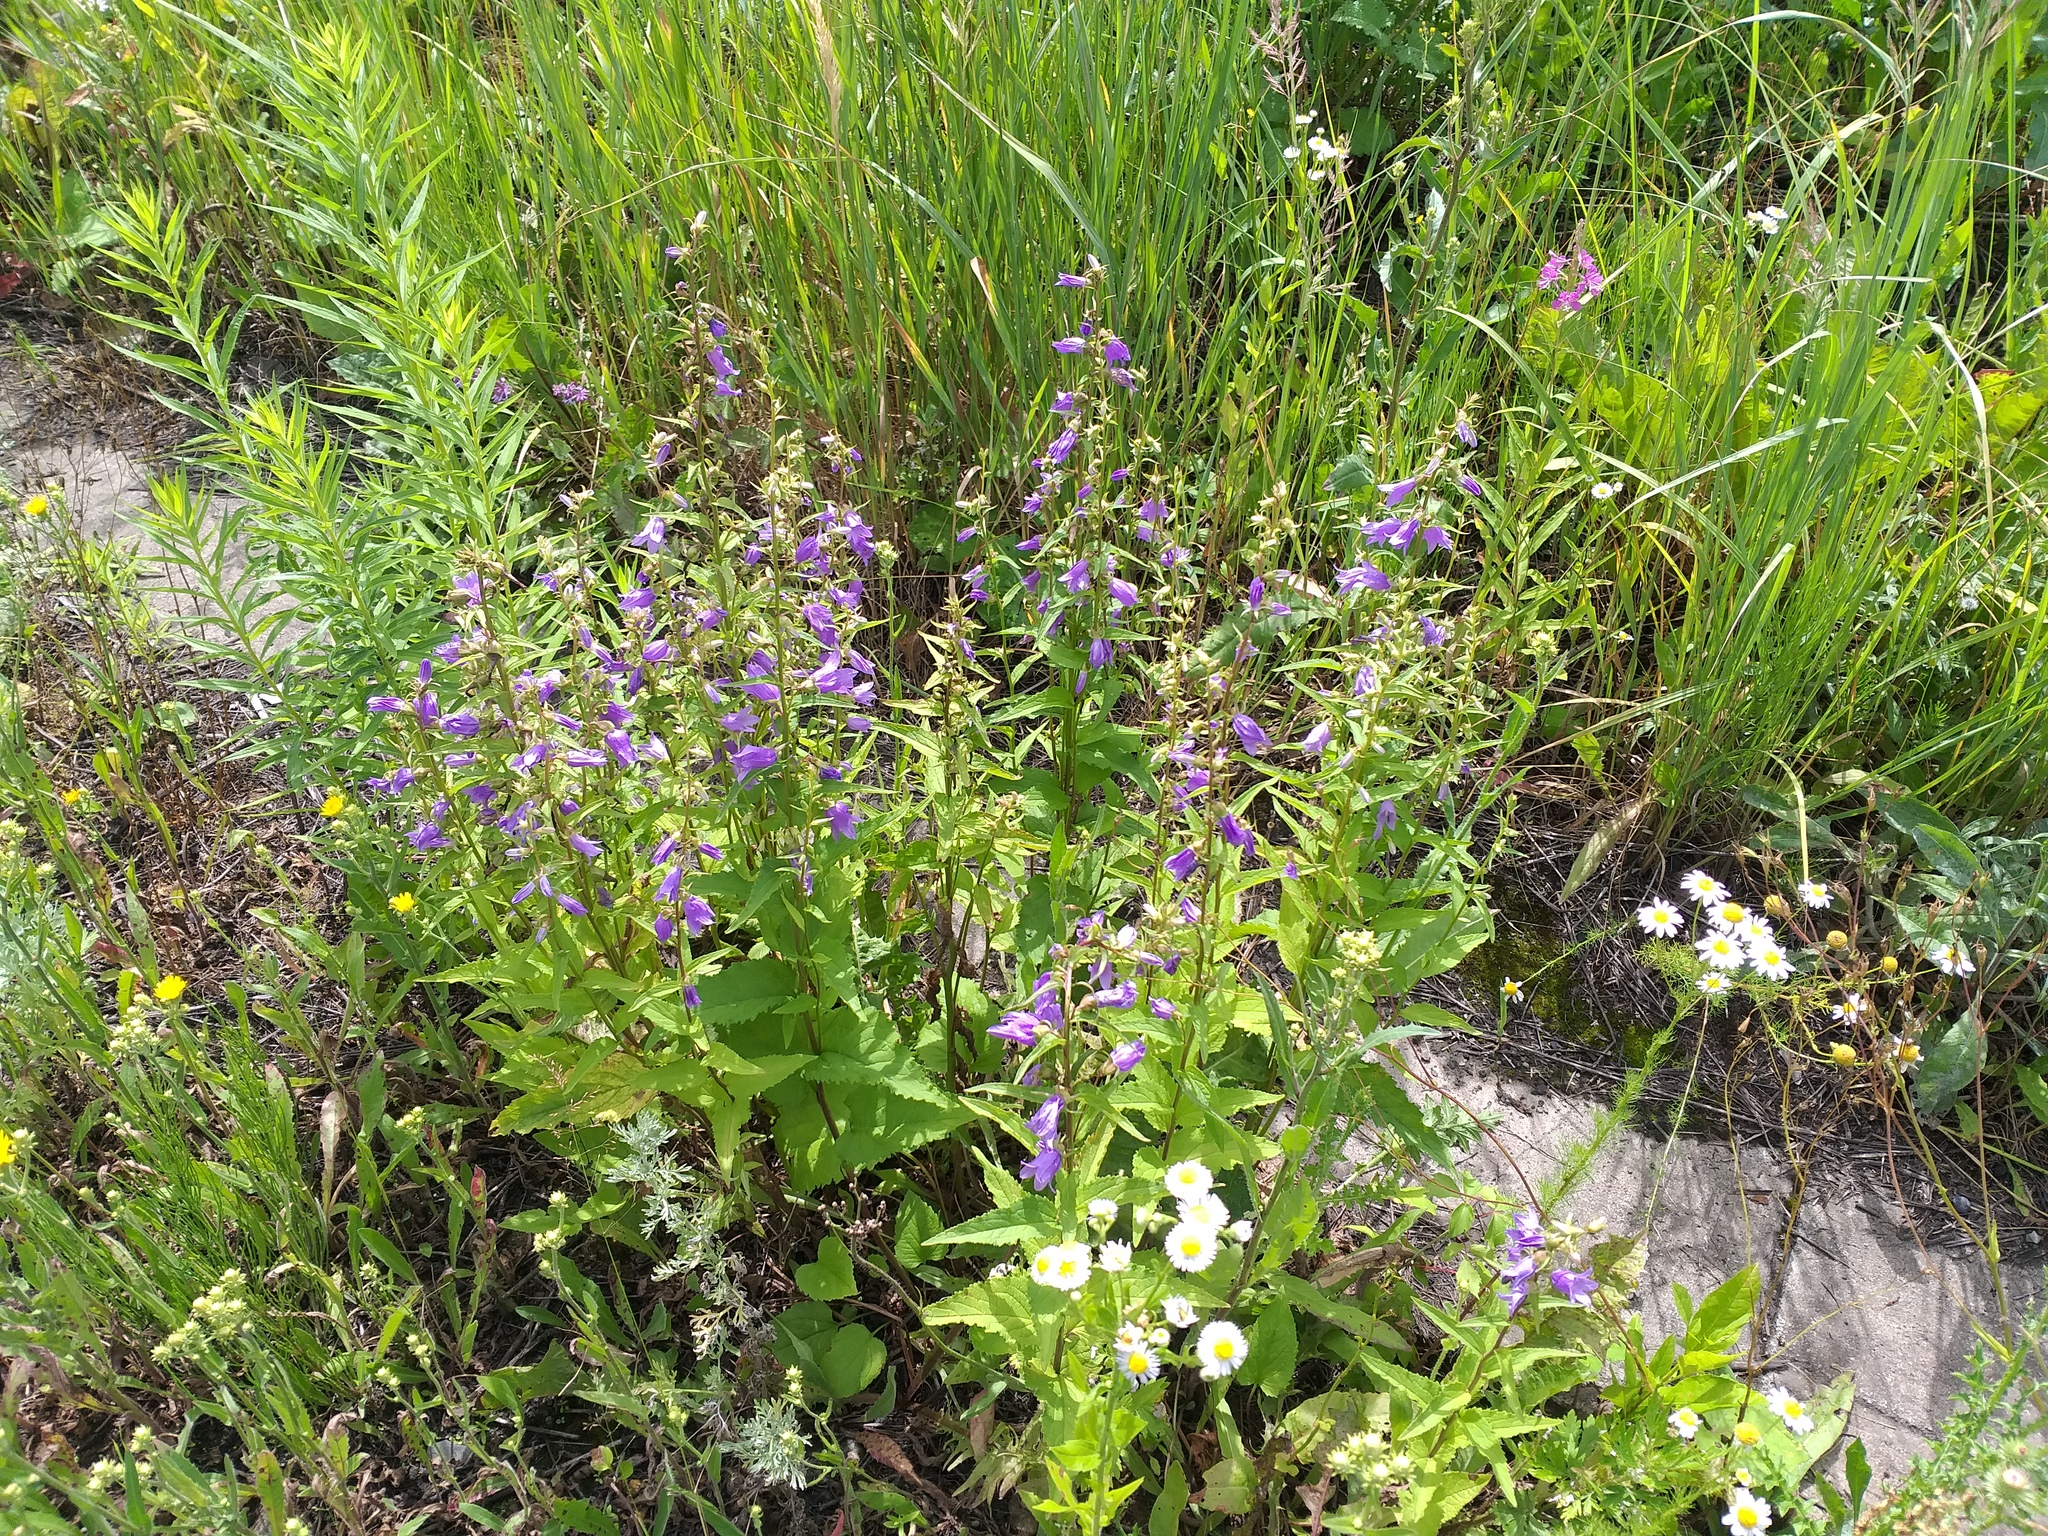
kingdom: Plantae
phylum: Tracheophyta
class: Magnoliopsida
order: Asterales
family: Campanulaceae
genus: Campanula
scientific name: Campanula rapunculoides
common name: Creeping bellflower
